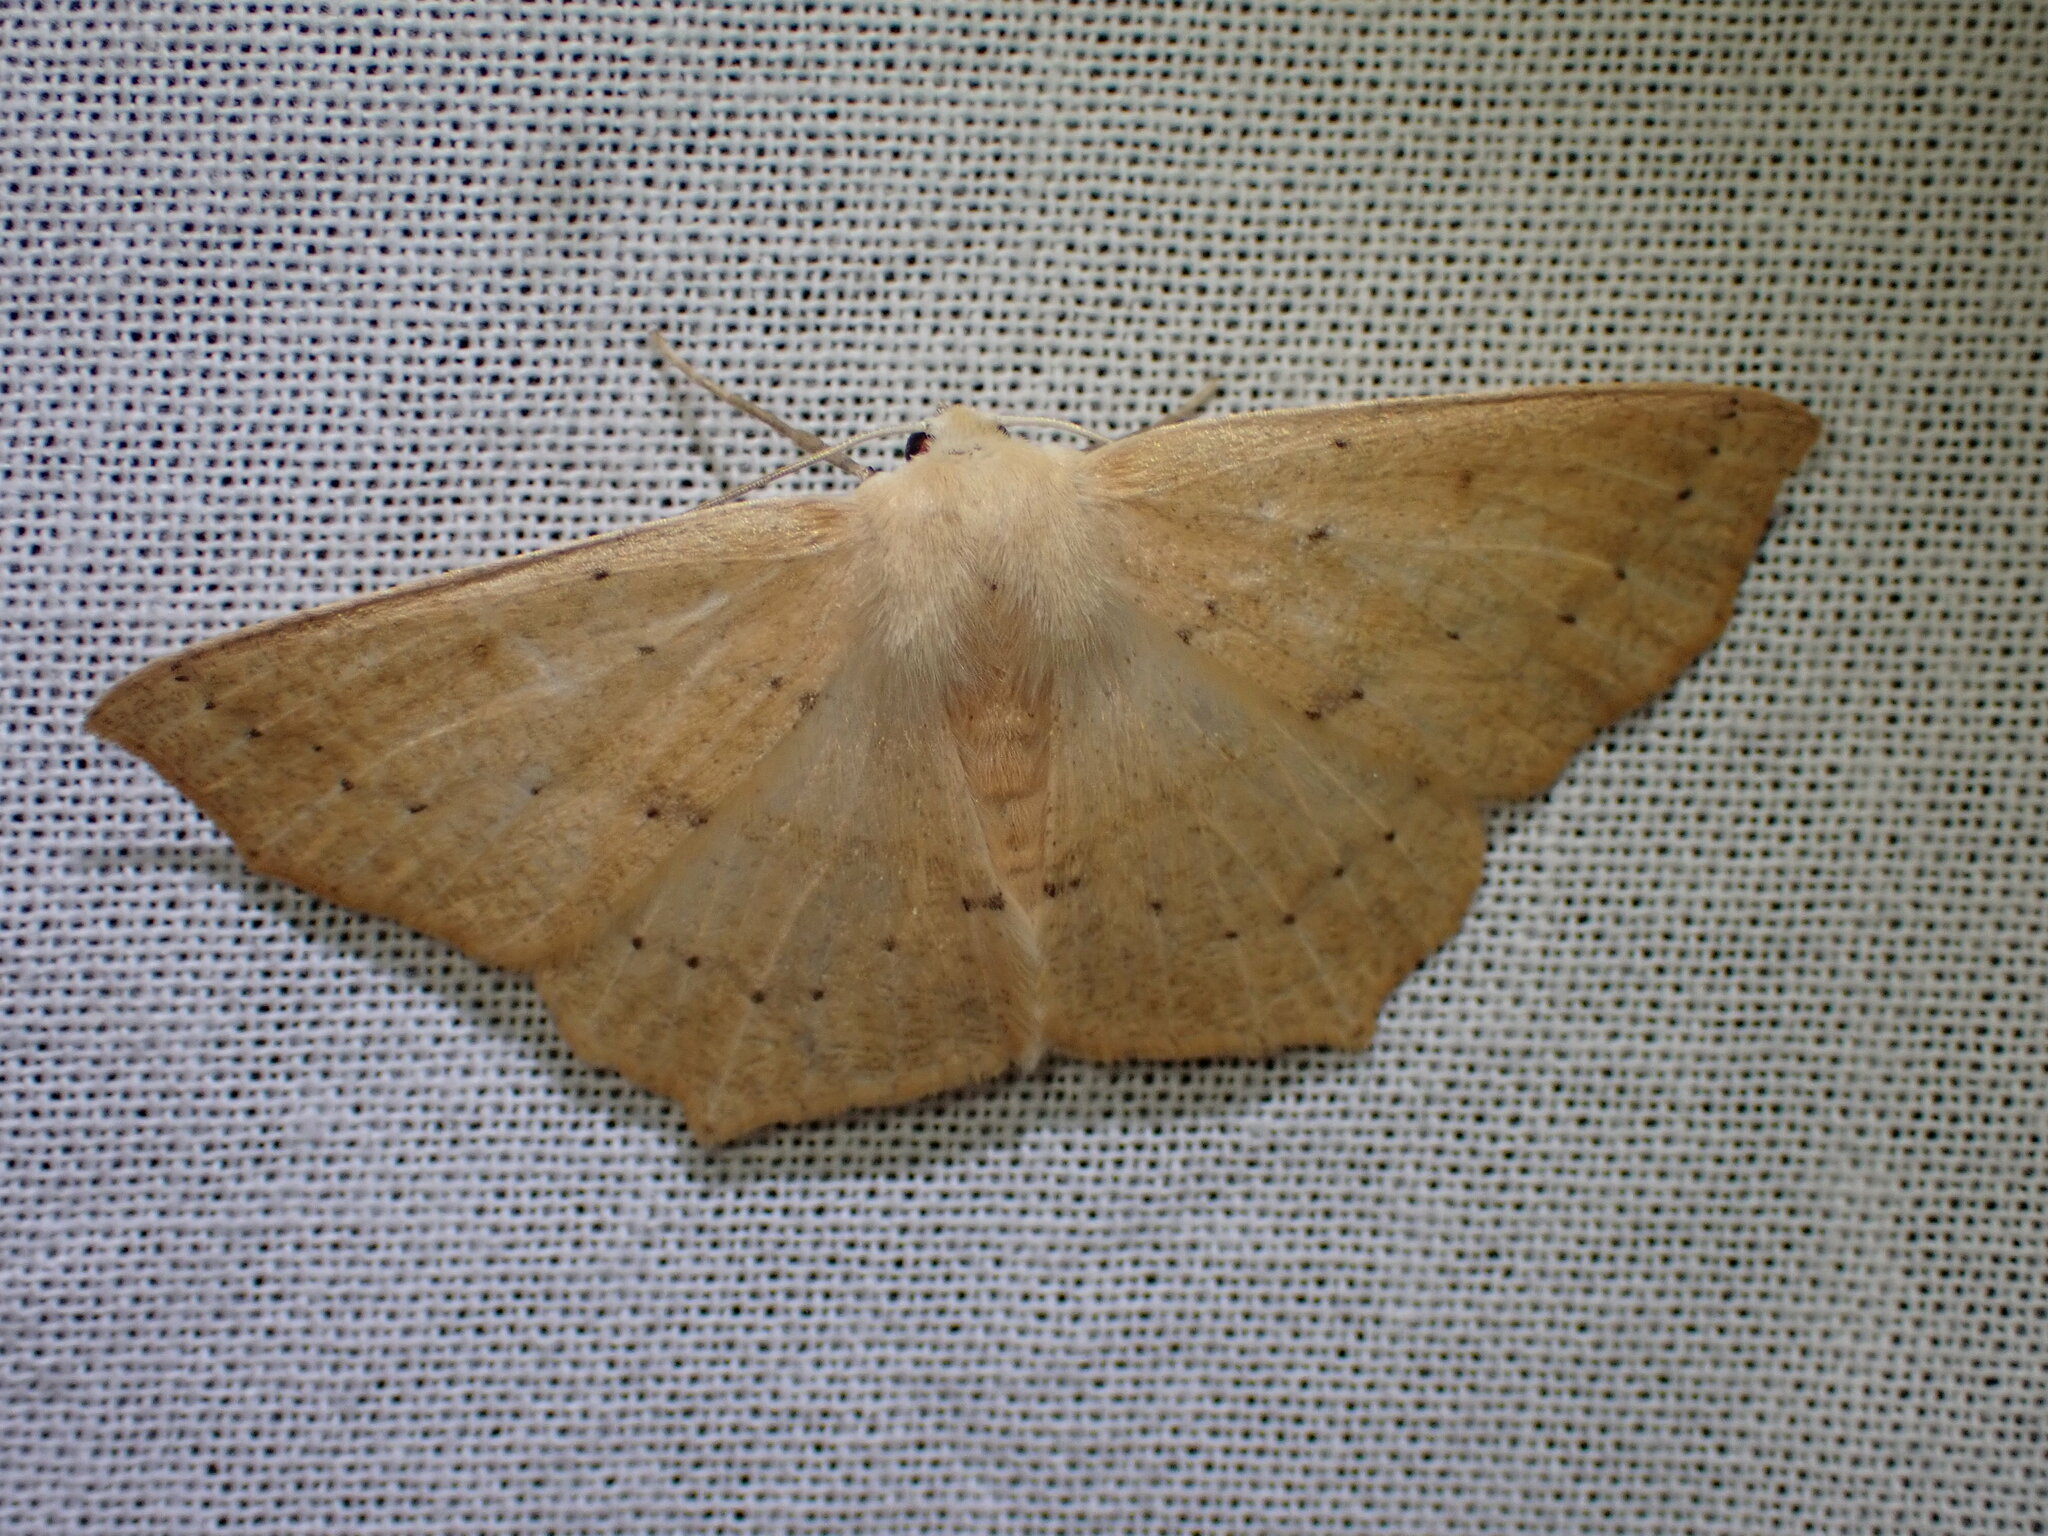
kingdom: Animalia
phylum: Arthropoda
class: Insecta
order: Lepidoptera
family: Geometridae
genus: Sabulodes
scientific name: Sabulodes aegrotata
